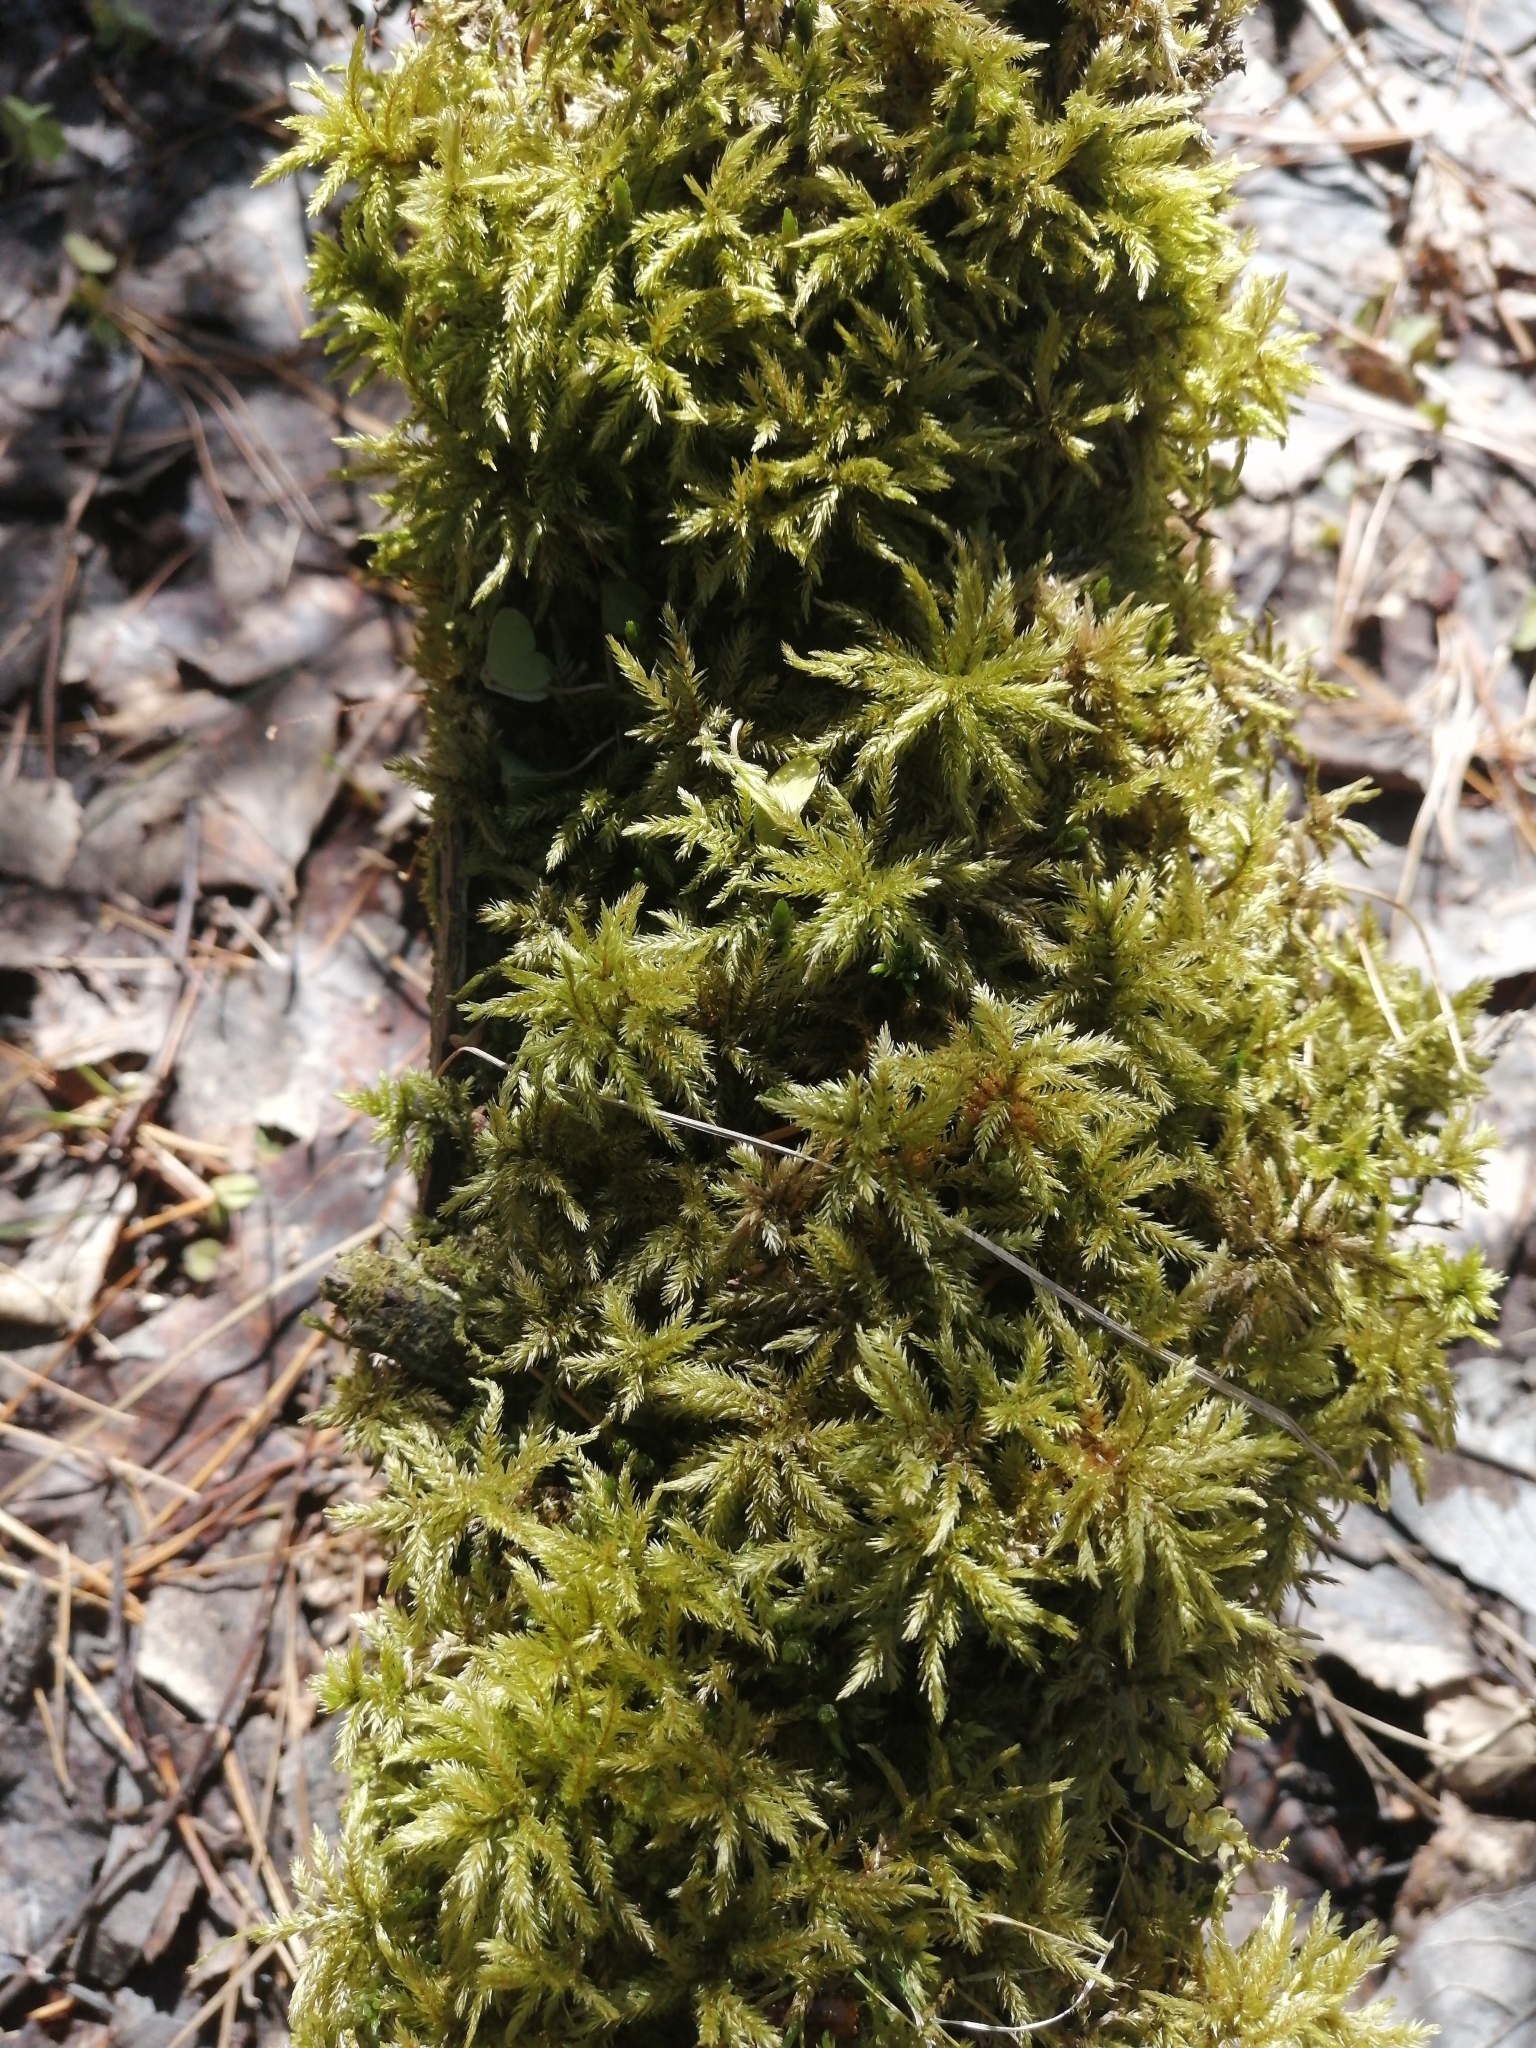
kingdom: Plantae
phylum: Bryophyta
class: Bryopsida
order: Hypnales
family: Climaciaceae
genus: Climacium
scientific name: Climacium dendroides
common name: Northern tree moss
